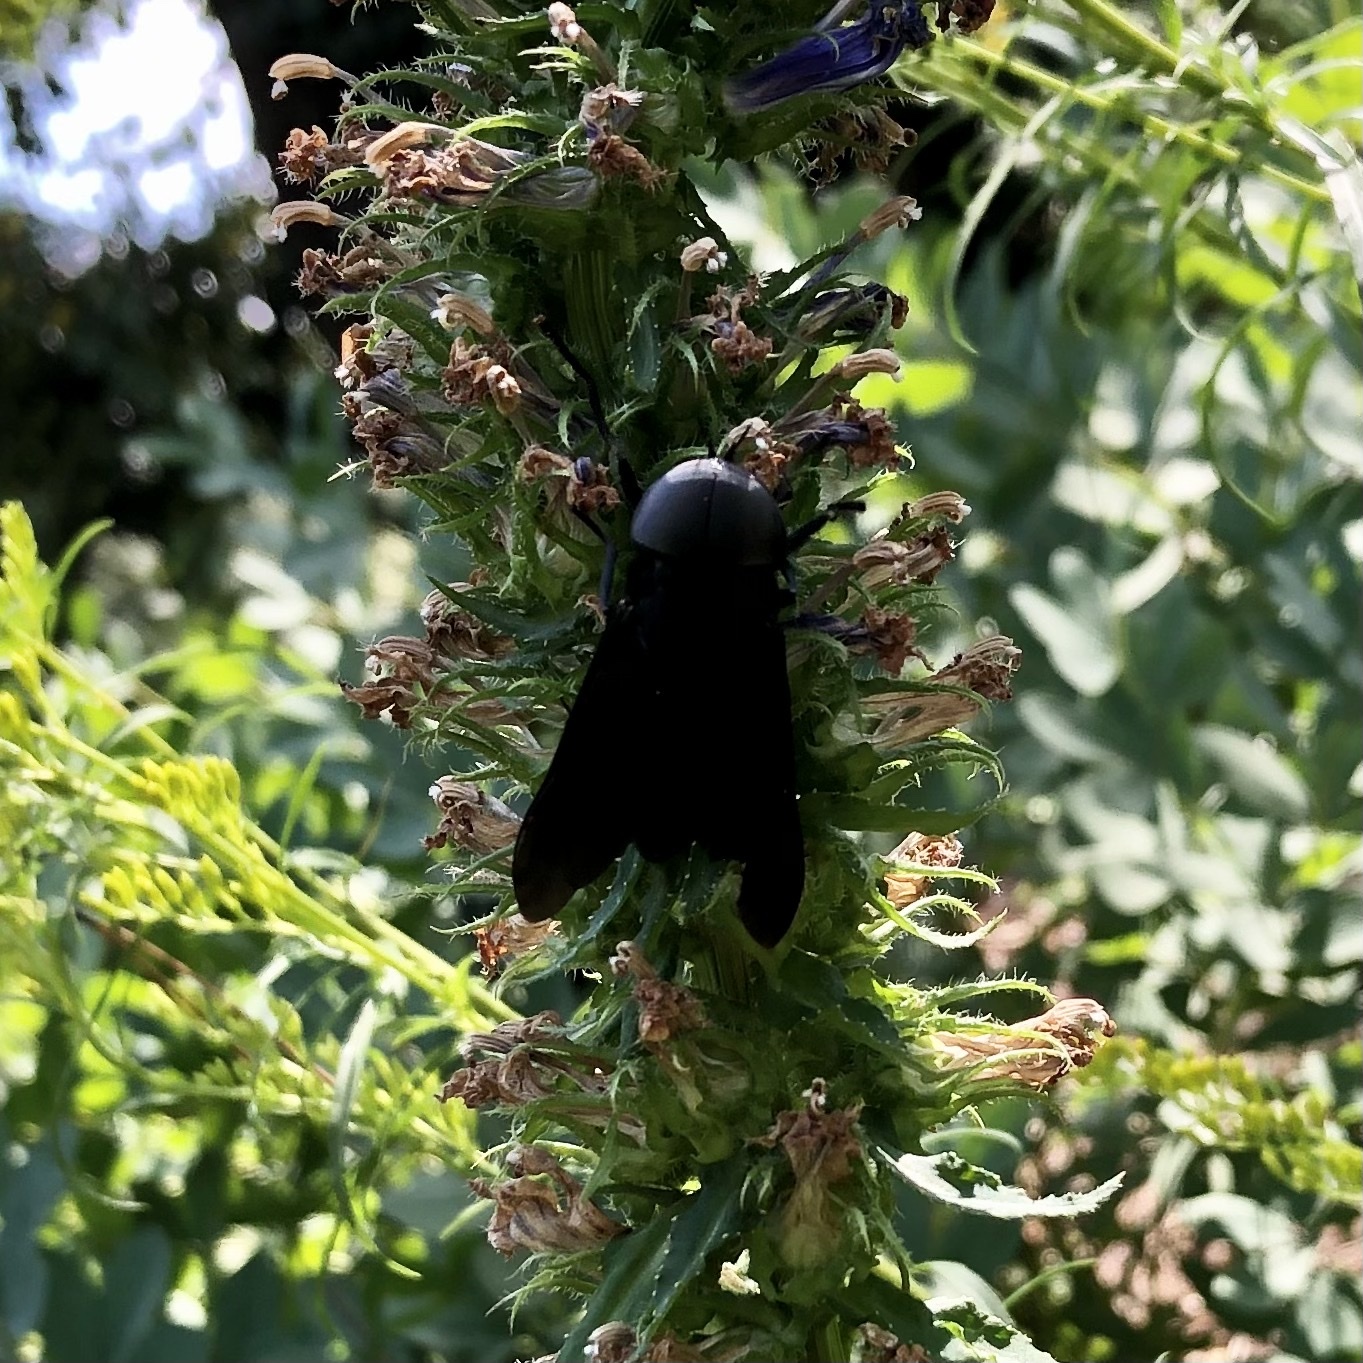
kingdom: Animalia
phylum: Arthropoda
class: Insecta
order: Diptera
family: Tabanidae
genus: Tabanus
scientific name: Tabanus atratus
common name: Black horse fly
